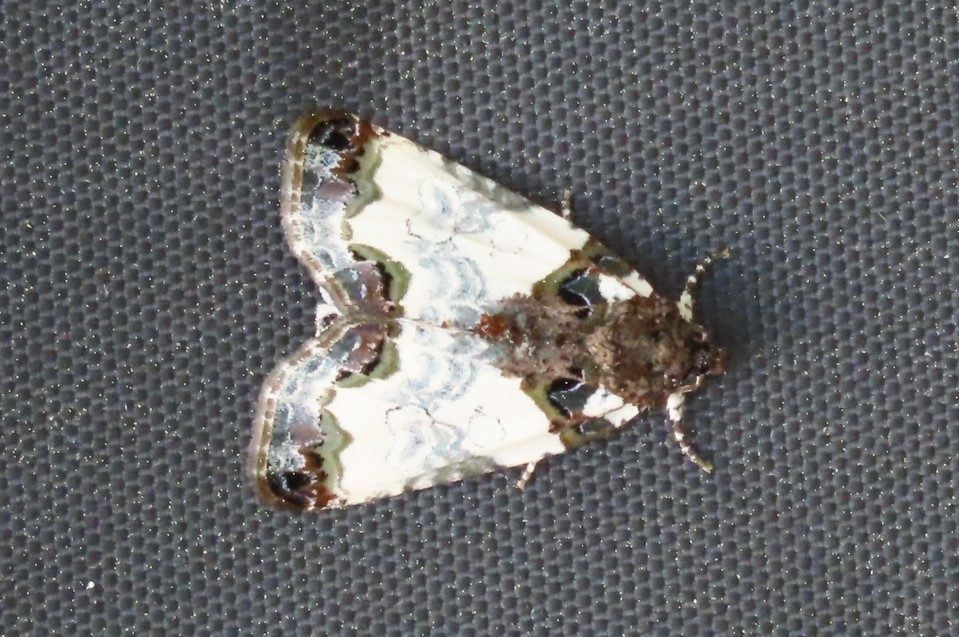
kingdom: Animalia
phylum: Arthropoda
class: Insecta
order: Lepidoptera
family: Noctuidae
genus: Cerma
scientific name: Cerma cerintha
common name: Tufted bird-dropping moth
